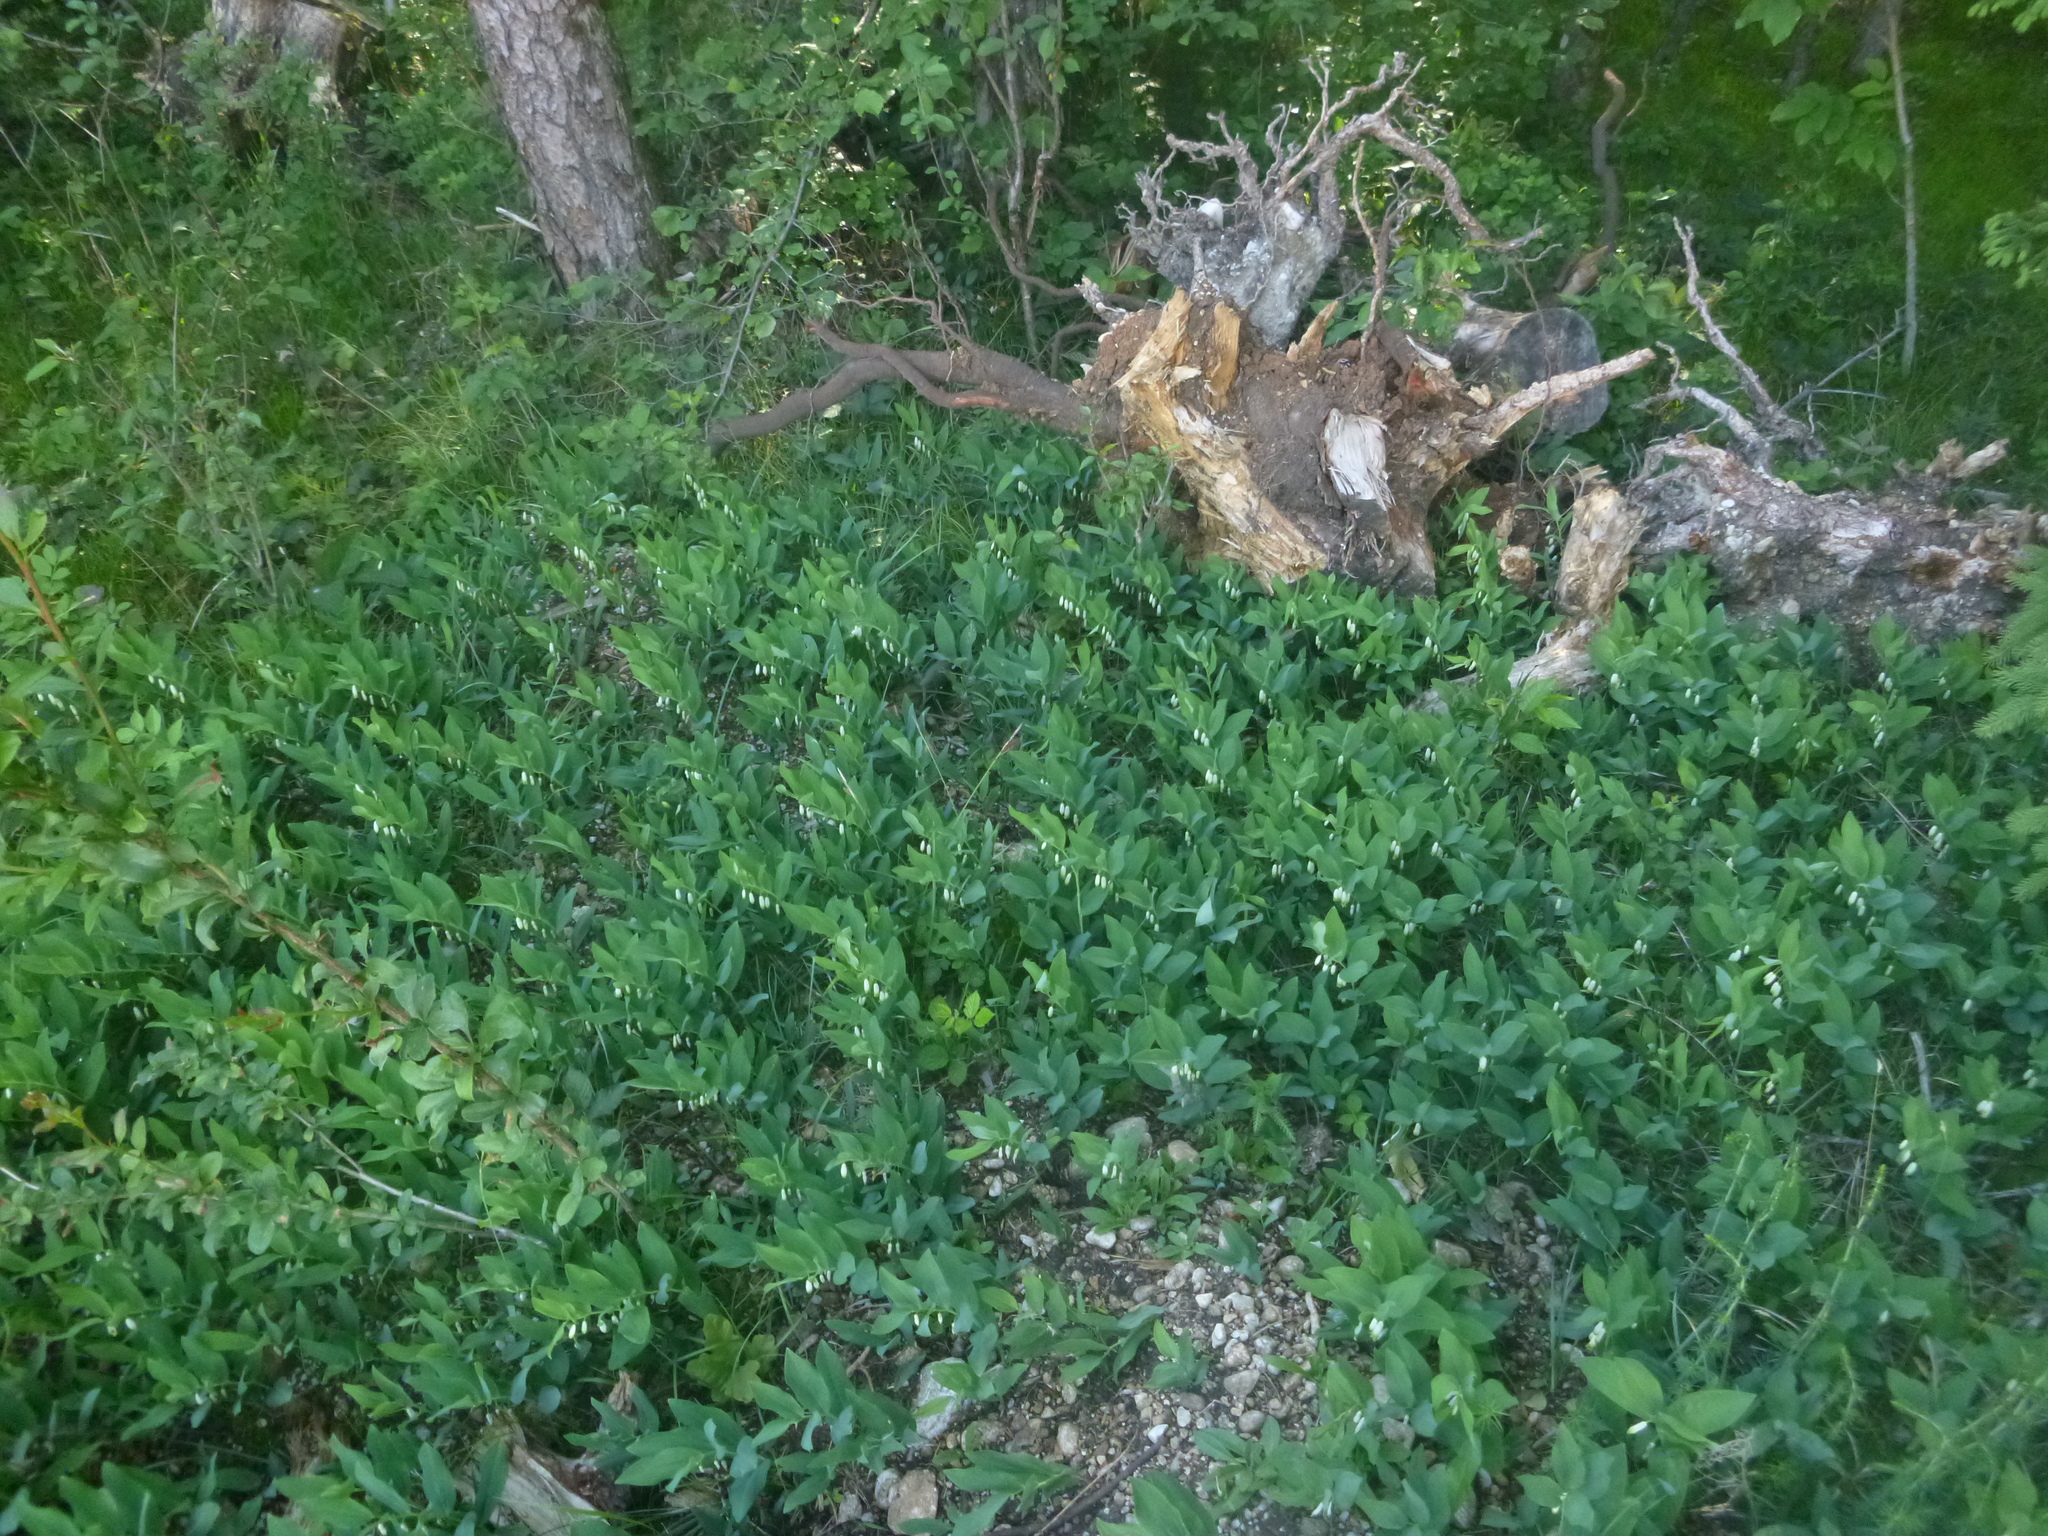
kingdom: Plantae
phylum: Tracheophyta
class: Liliopsida
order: Asparagales
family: Asparagaceae
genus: Polygonatum
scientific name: Polygonatum odoratum
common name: Angular solomon's-seal
